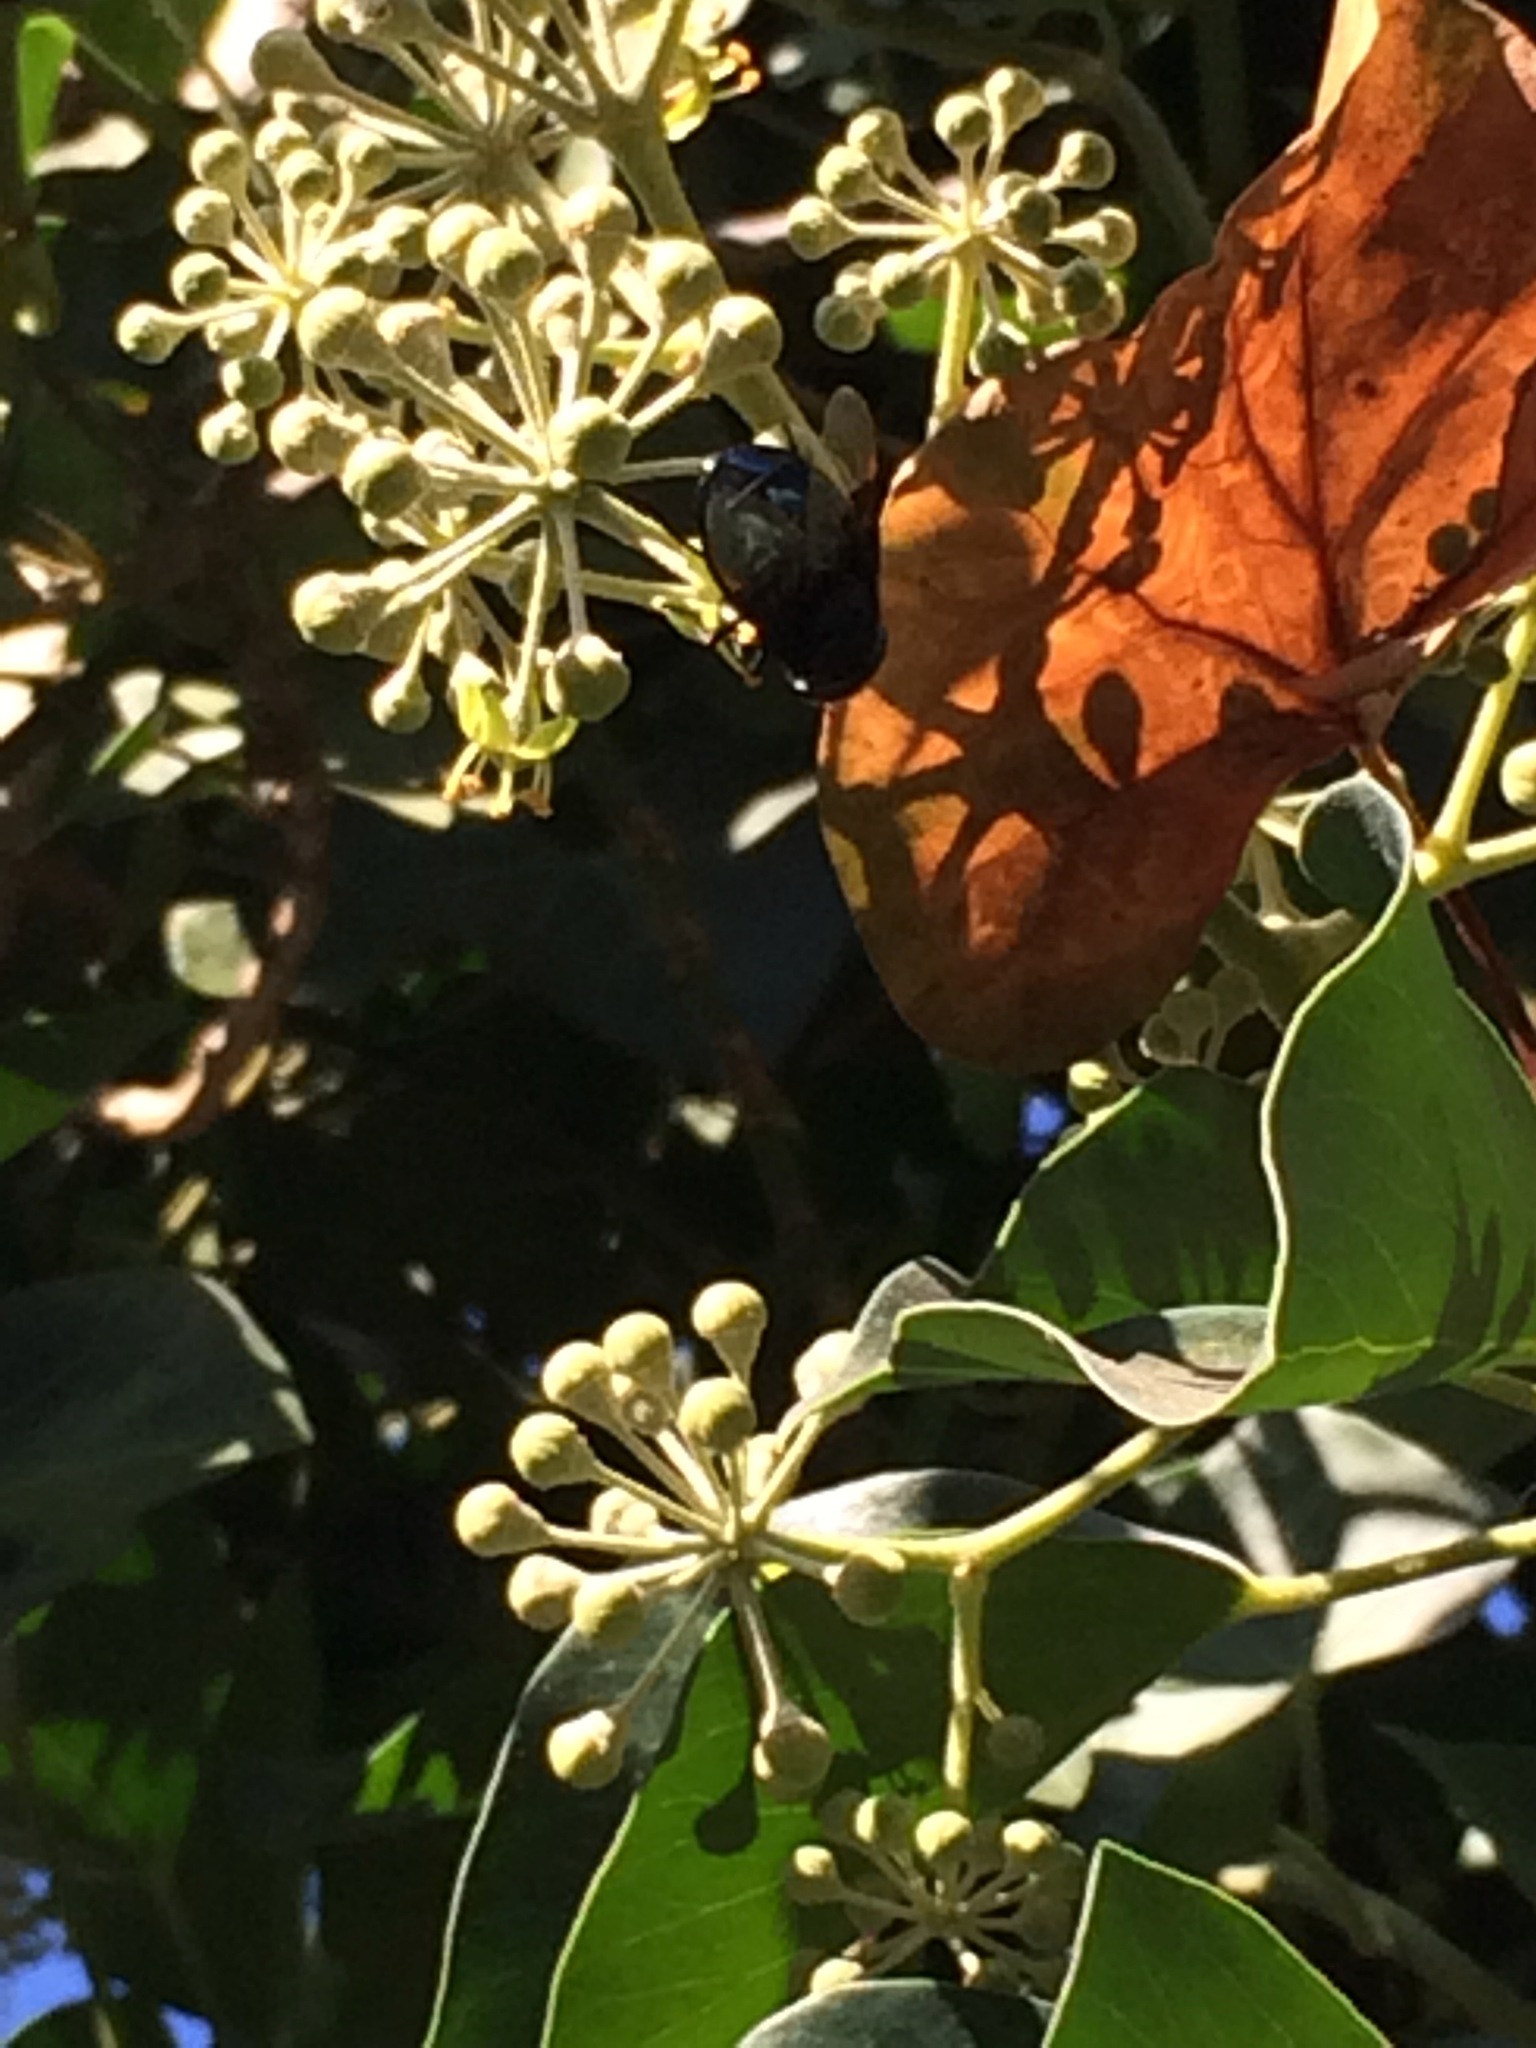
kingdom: Animalia
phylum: Arthropoda
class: Insecta
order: Diptera
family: Syrphidae
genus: Copestylum
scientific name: Copestylum mexicanum
